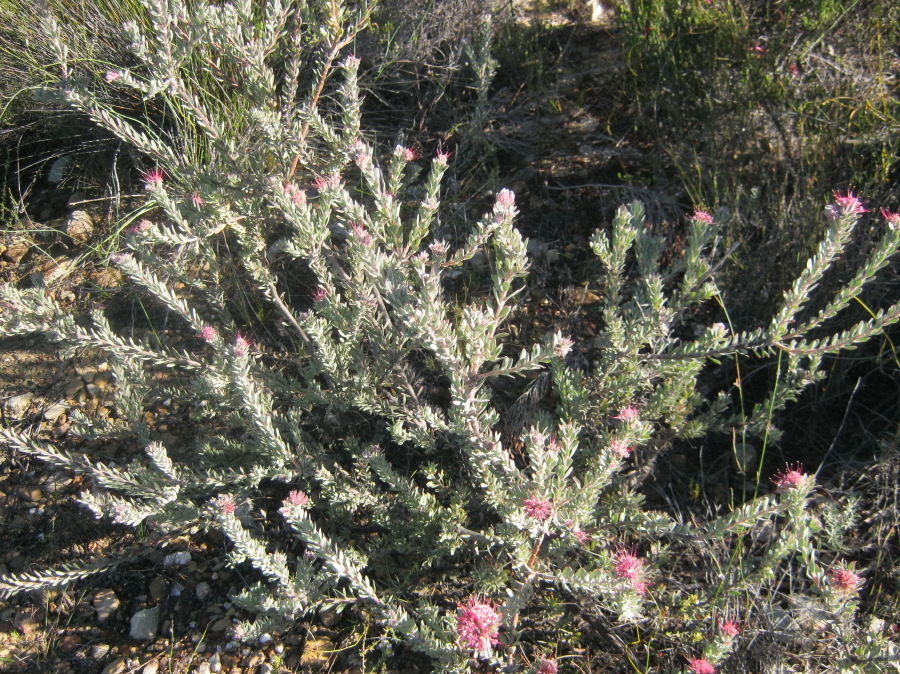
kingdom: Plantae
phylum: Tracheophyta
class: Magnoliopsida
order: Proteales
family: Proteaceae
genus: Leucospermum
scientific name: Leucospermum wittebergense
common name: Swartberg pincushion
